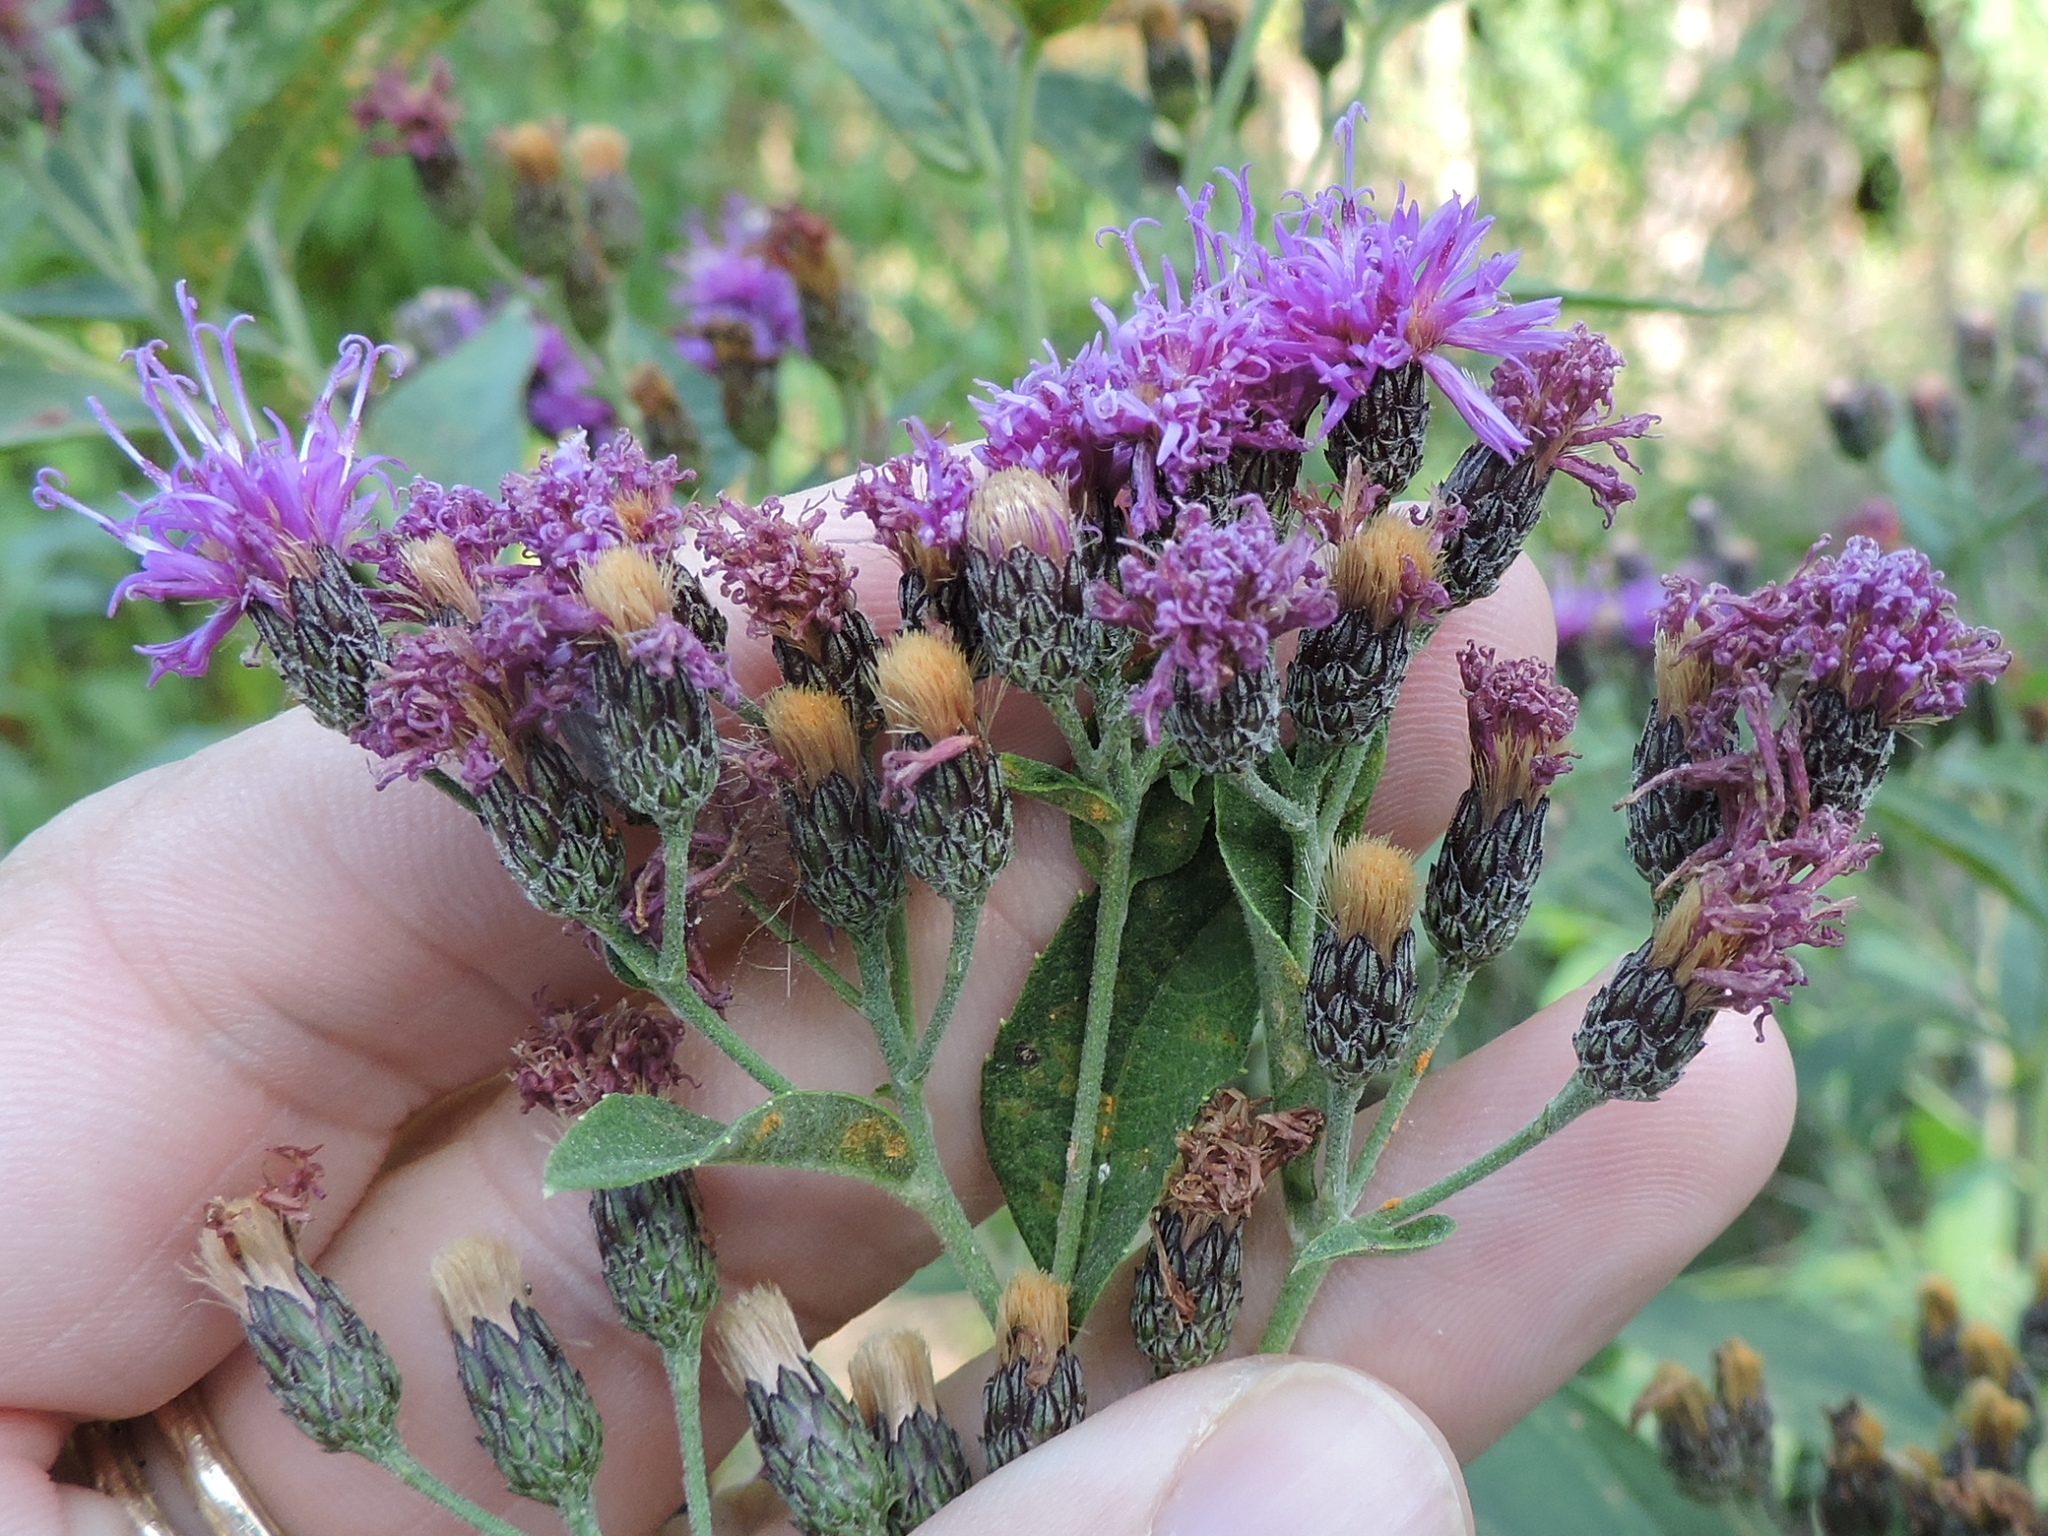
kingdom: Plantae
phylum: Tracheophyta
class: Magnoliopsida
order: Asterales
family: Asteraceae
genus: Vernonia
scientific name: Vernonia baldwinii
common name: Western ironweed
